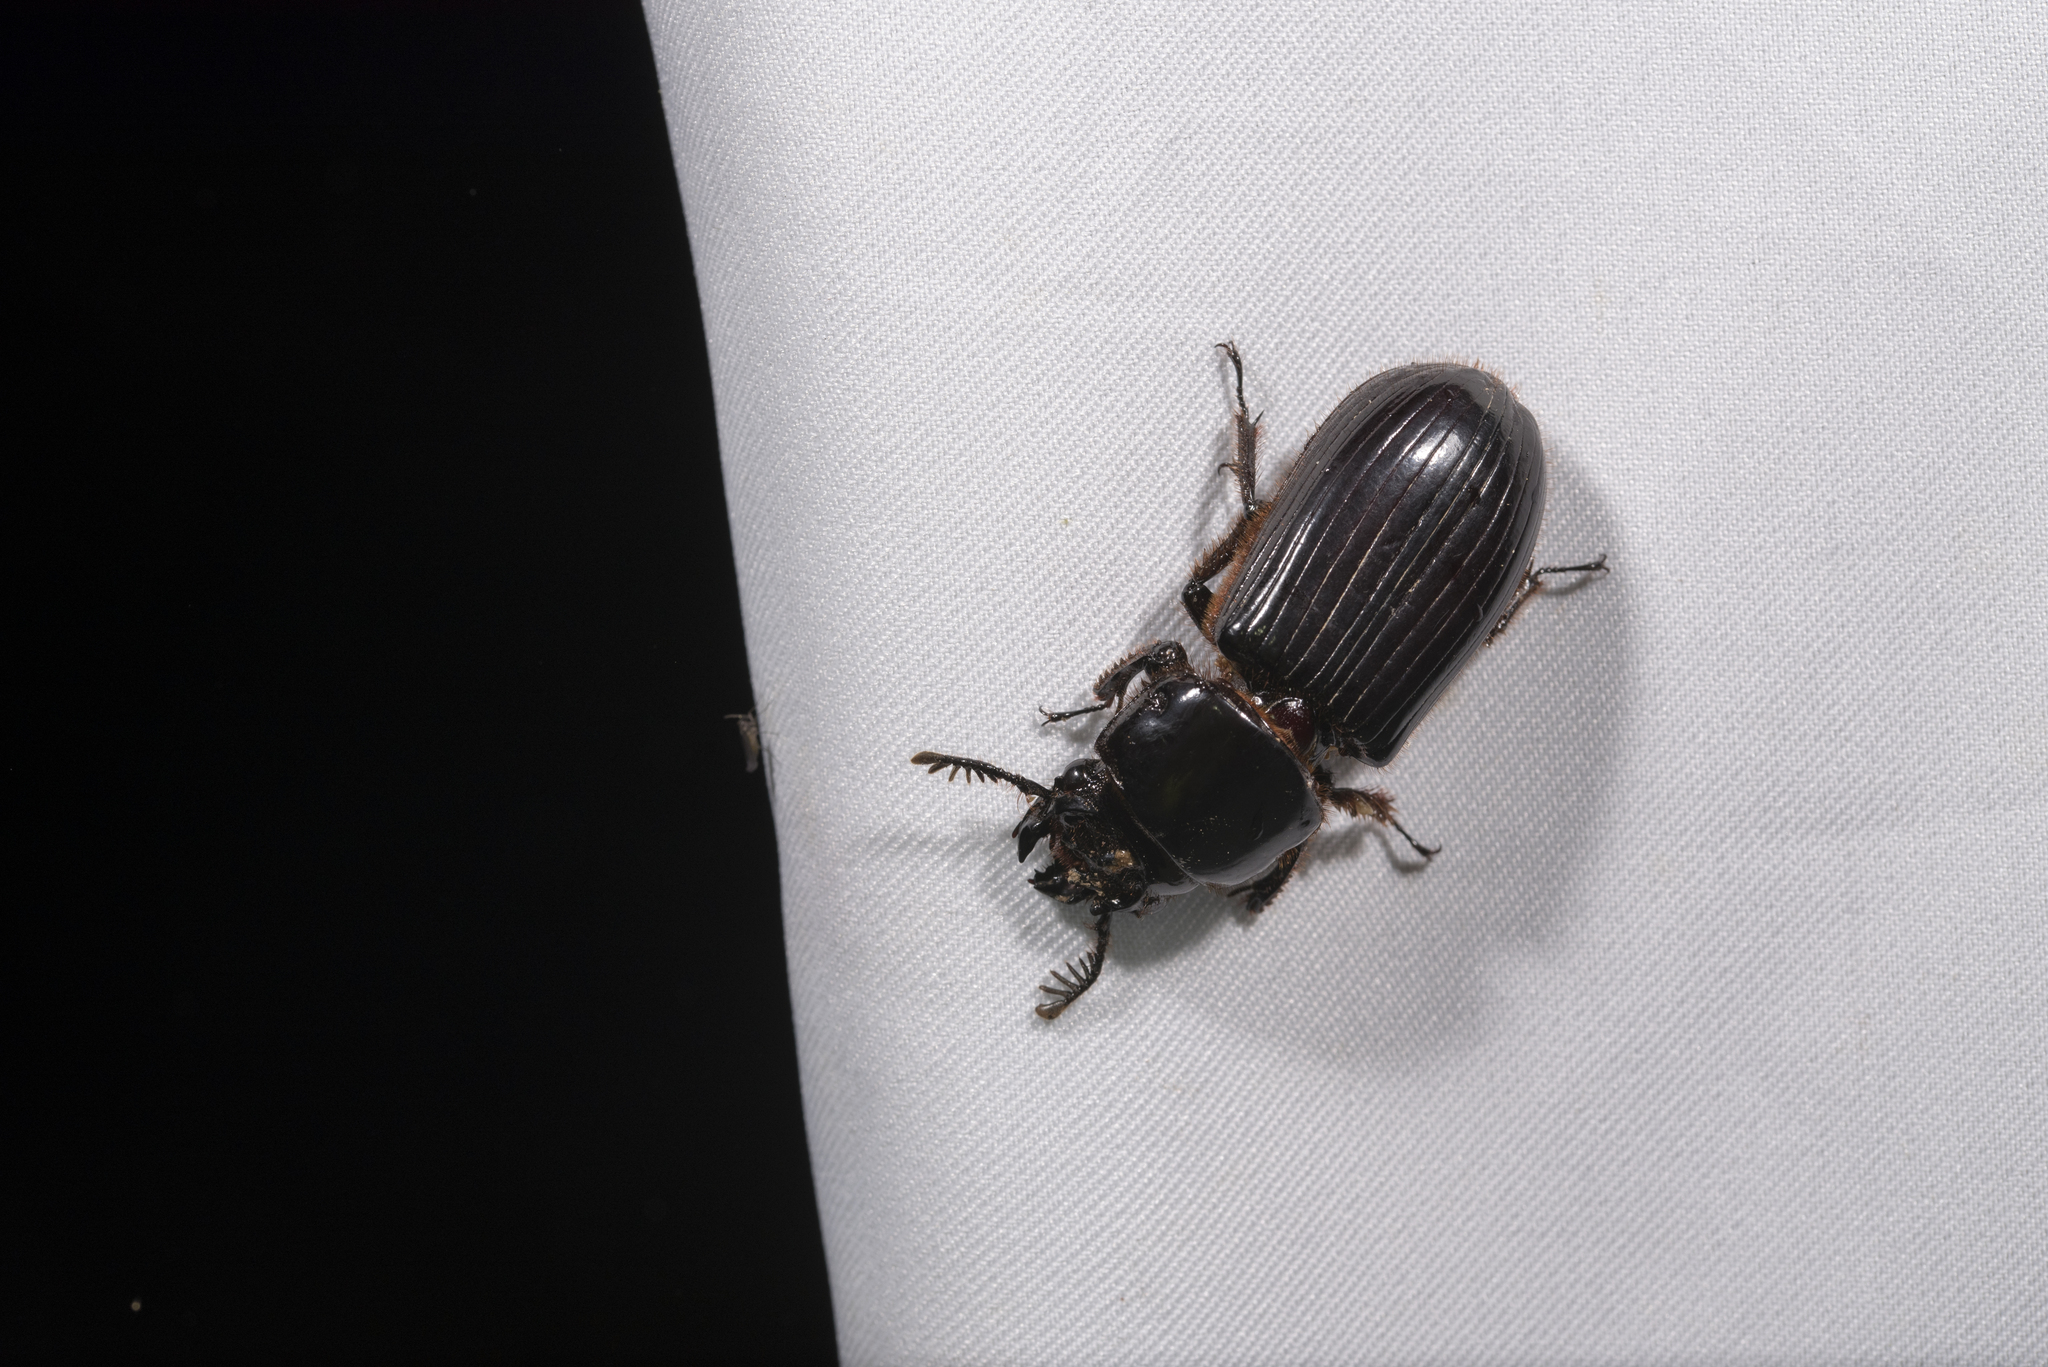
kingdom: Animalia
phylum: Arthropoda
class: Insecta
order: Coleoptera
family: Passalidae
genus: Aceraius
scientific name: Aceraius grandis
